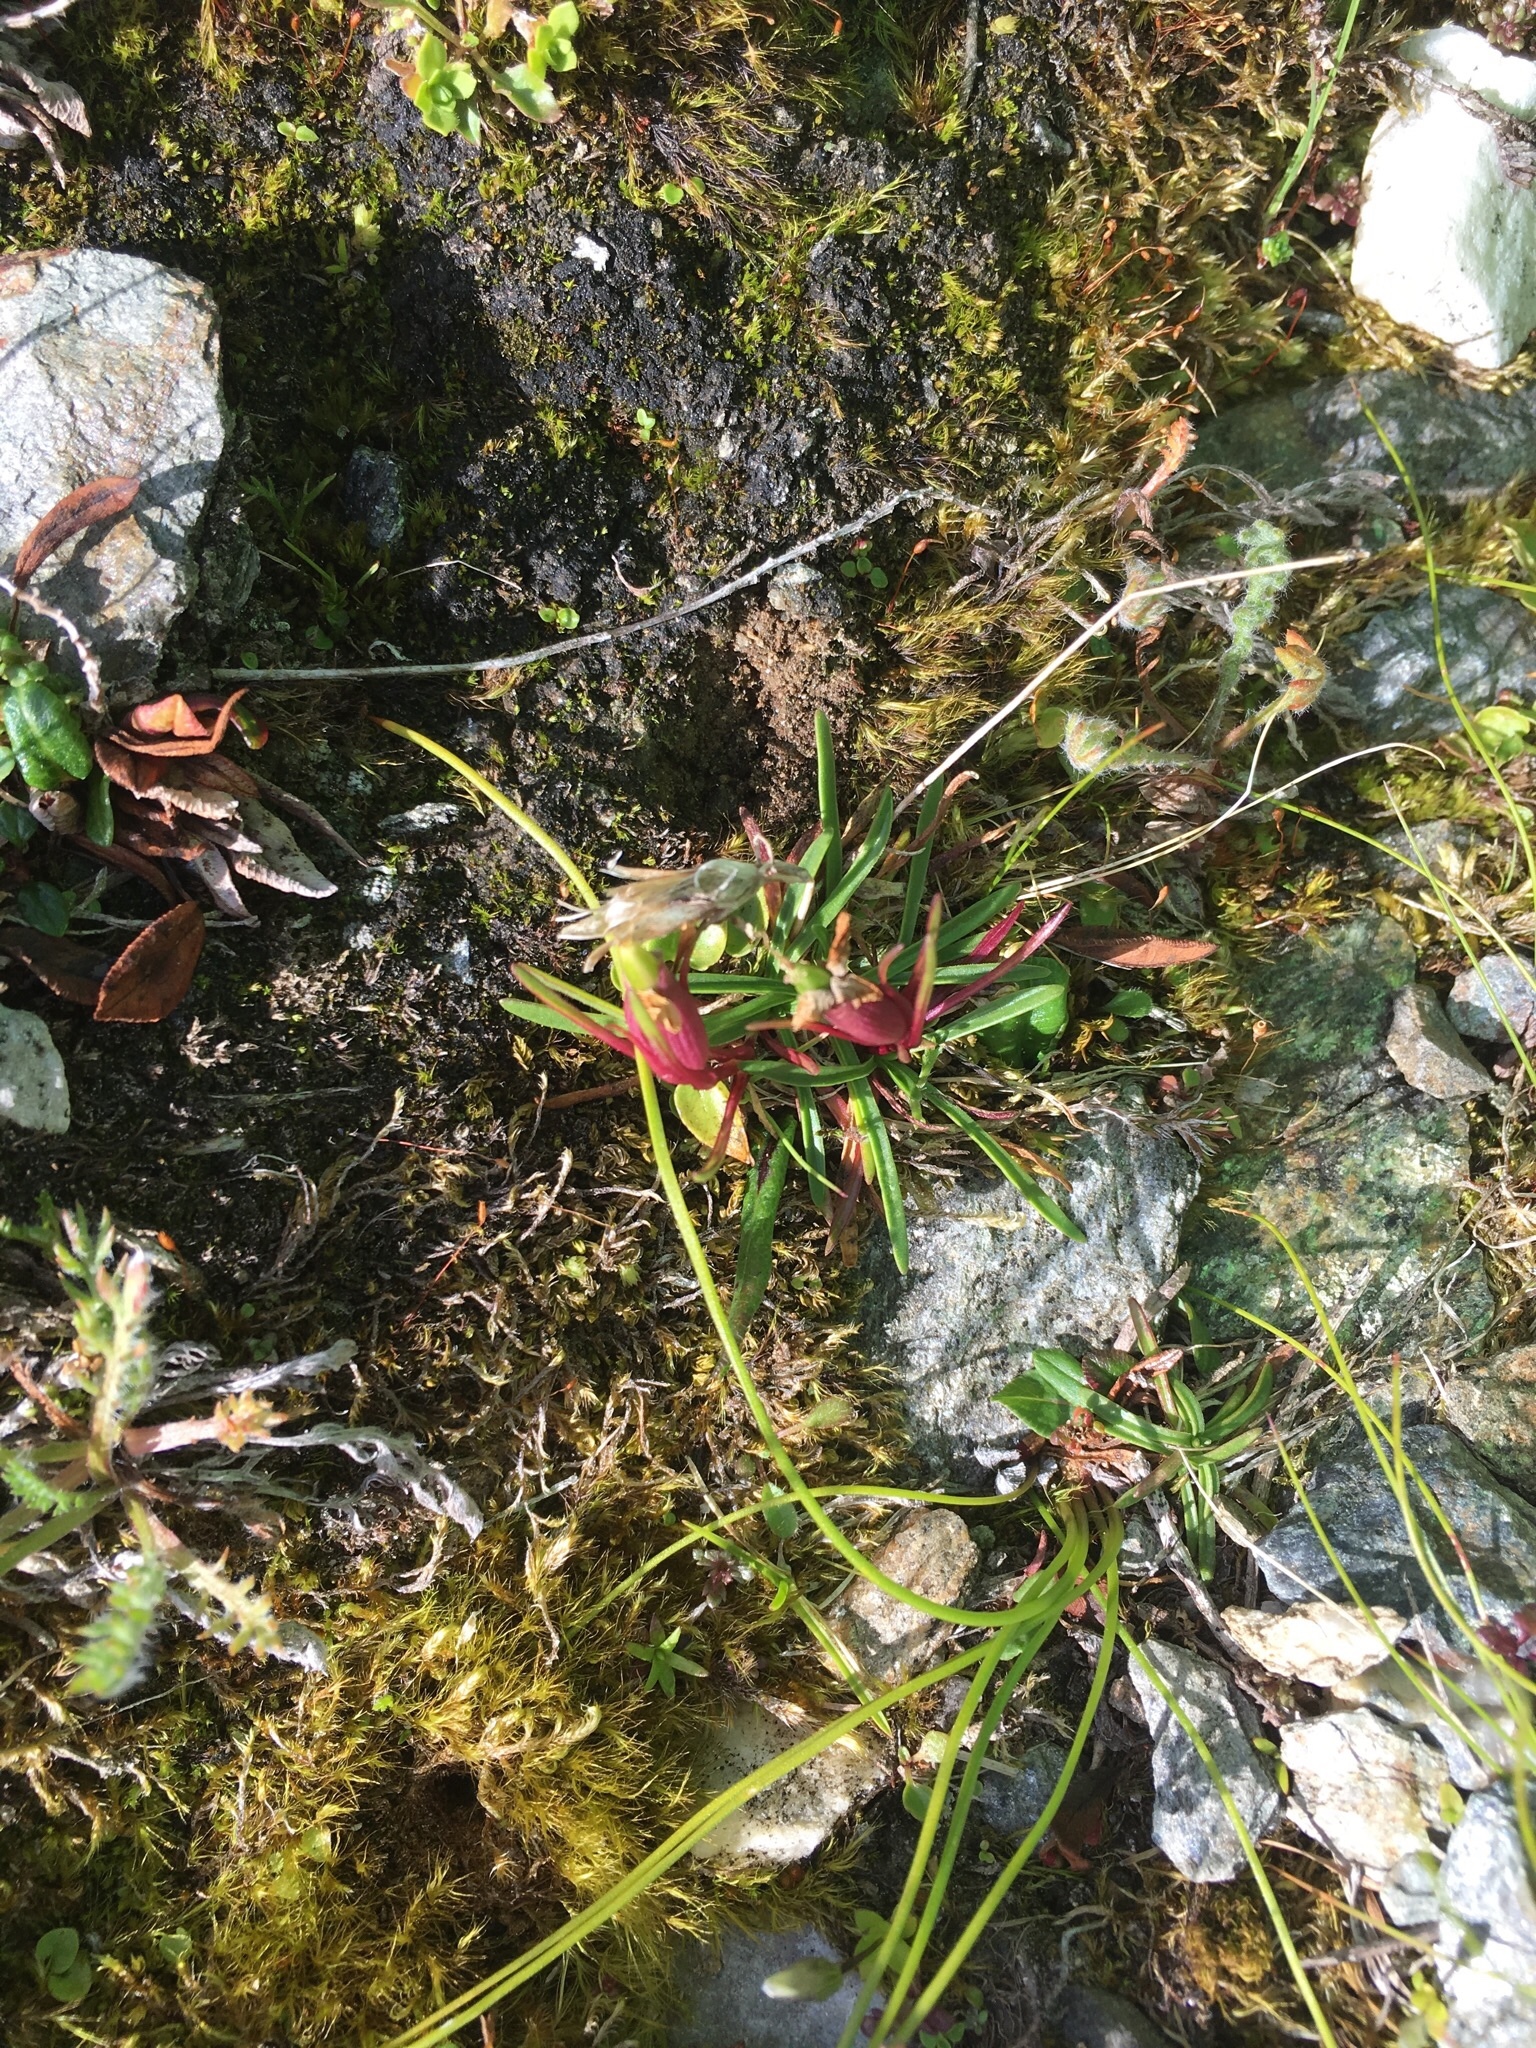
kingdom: Plantae
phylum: Tracheophyta
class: Magnoliopsida
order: Caryophyllales
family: Caryophyllaceae
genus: Dianthus
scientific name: Dianthus glacialis
